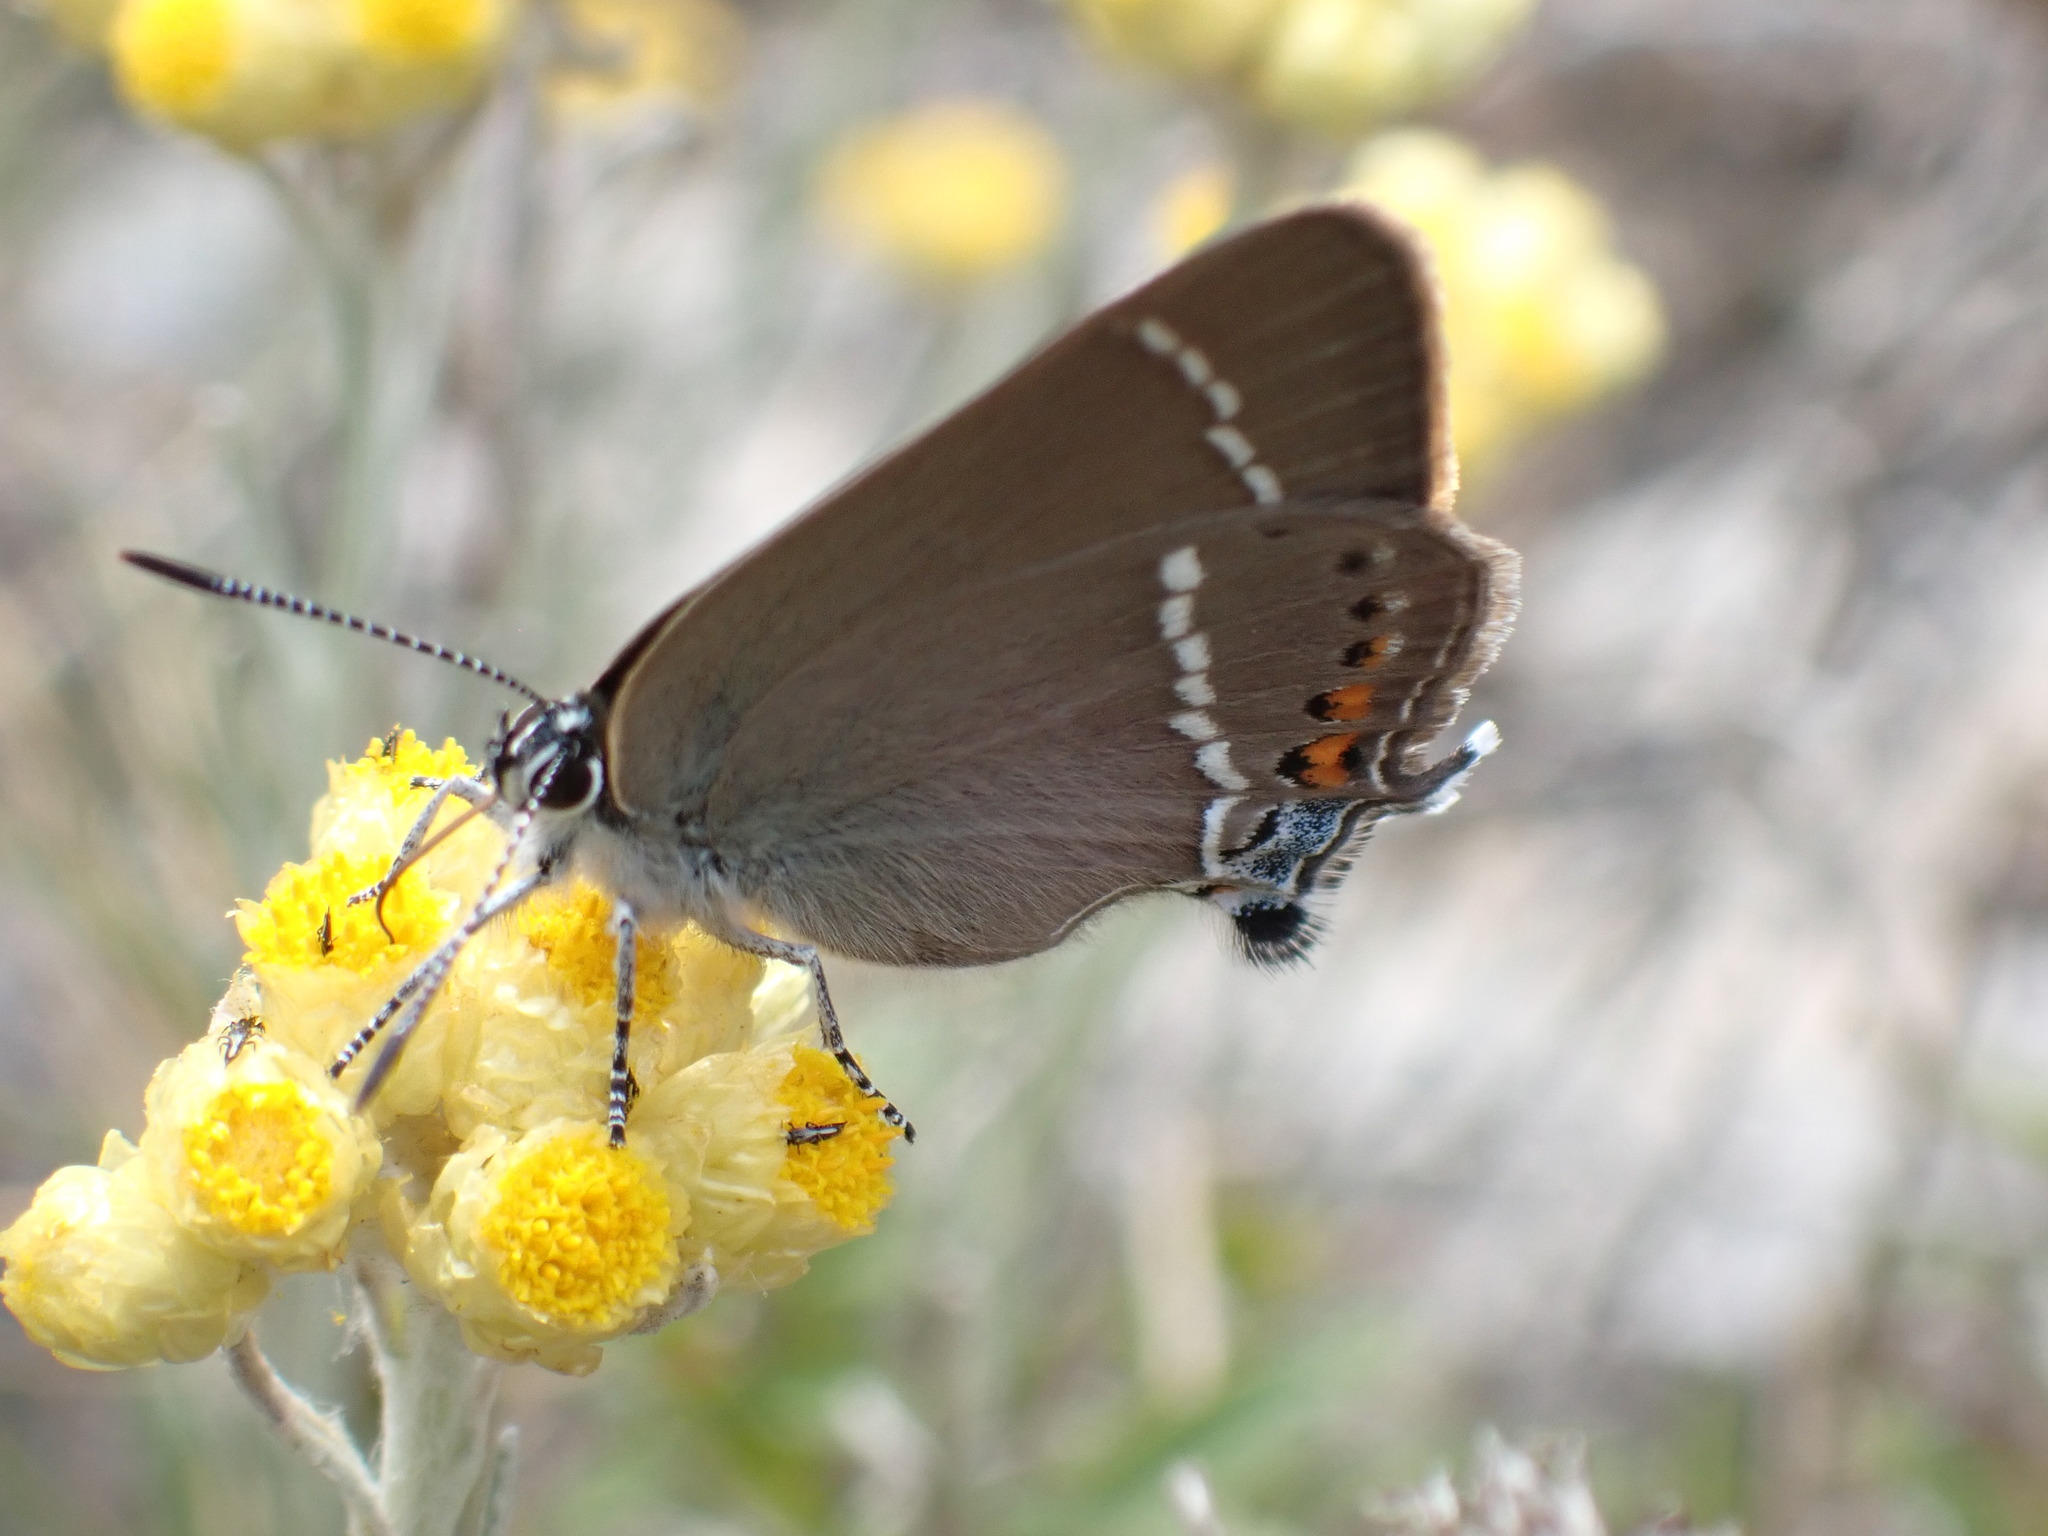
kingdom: Animalia
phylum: Arthropoda
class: Insecta
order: Lepidoptera
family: Lycaenidae
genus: Tuttiola
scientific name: Tuttiola spini
